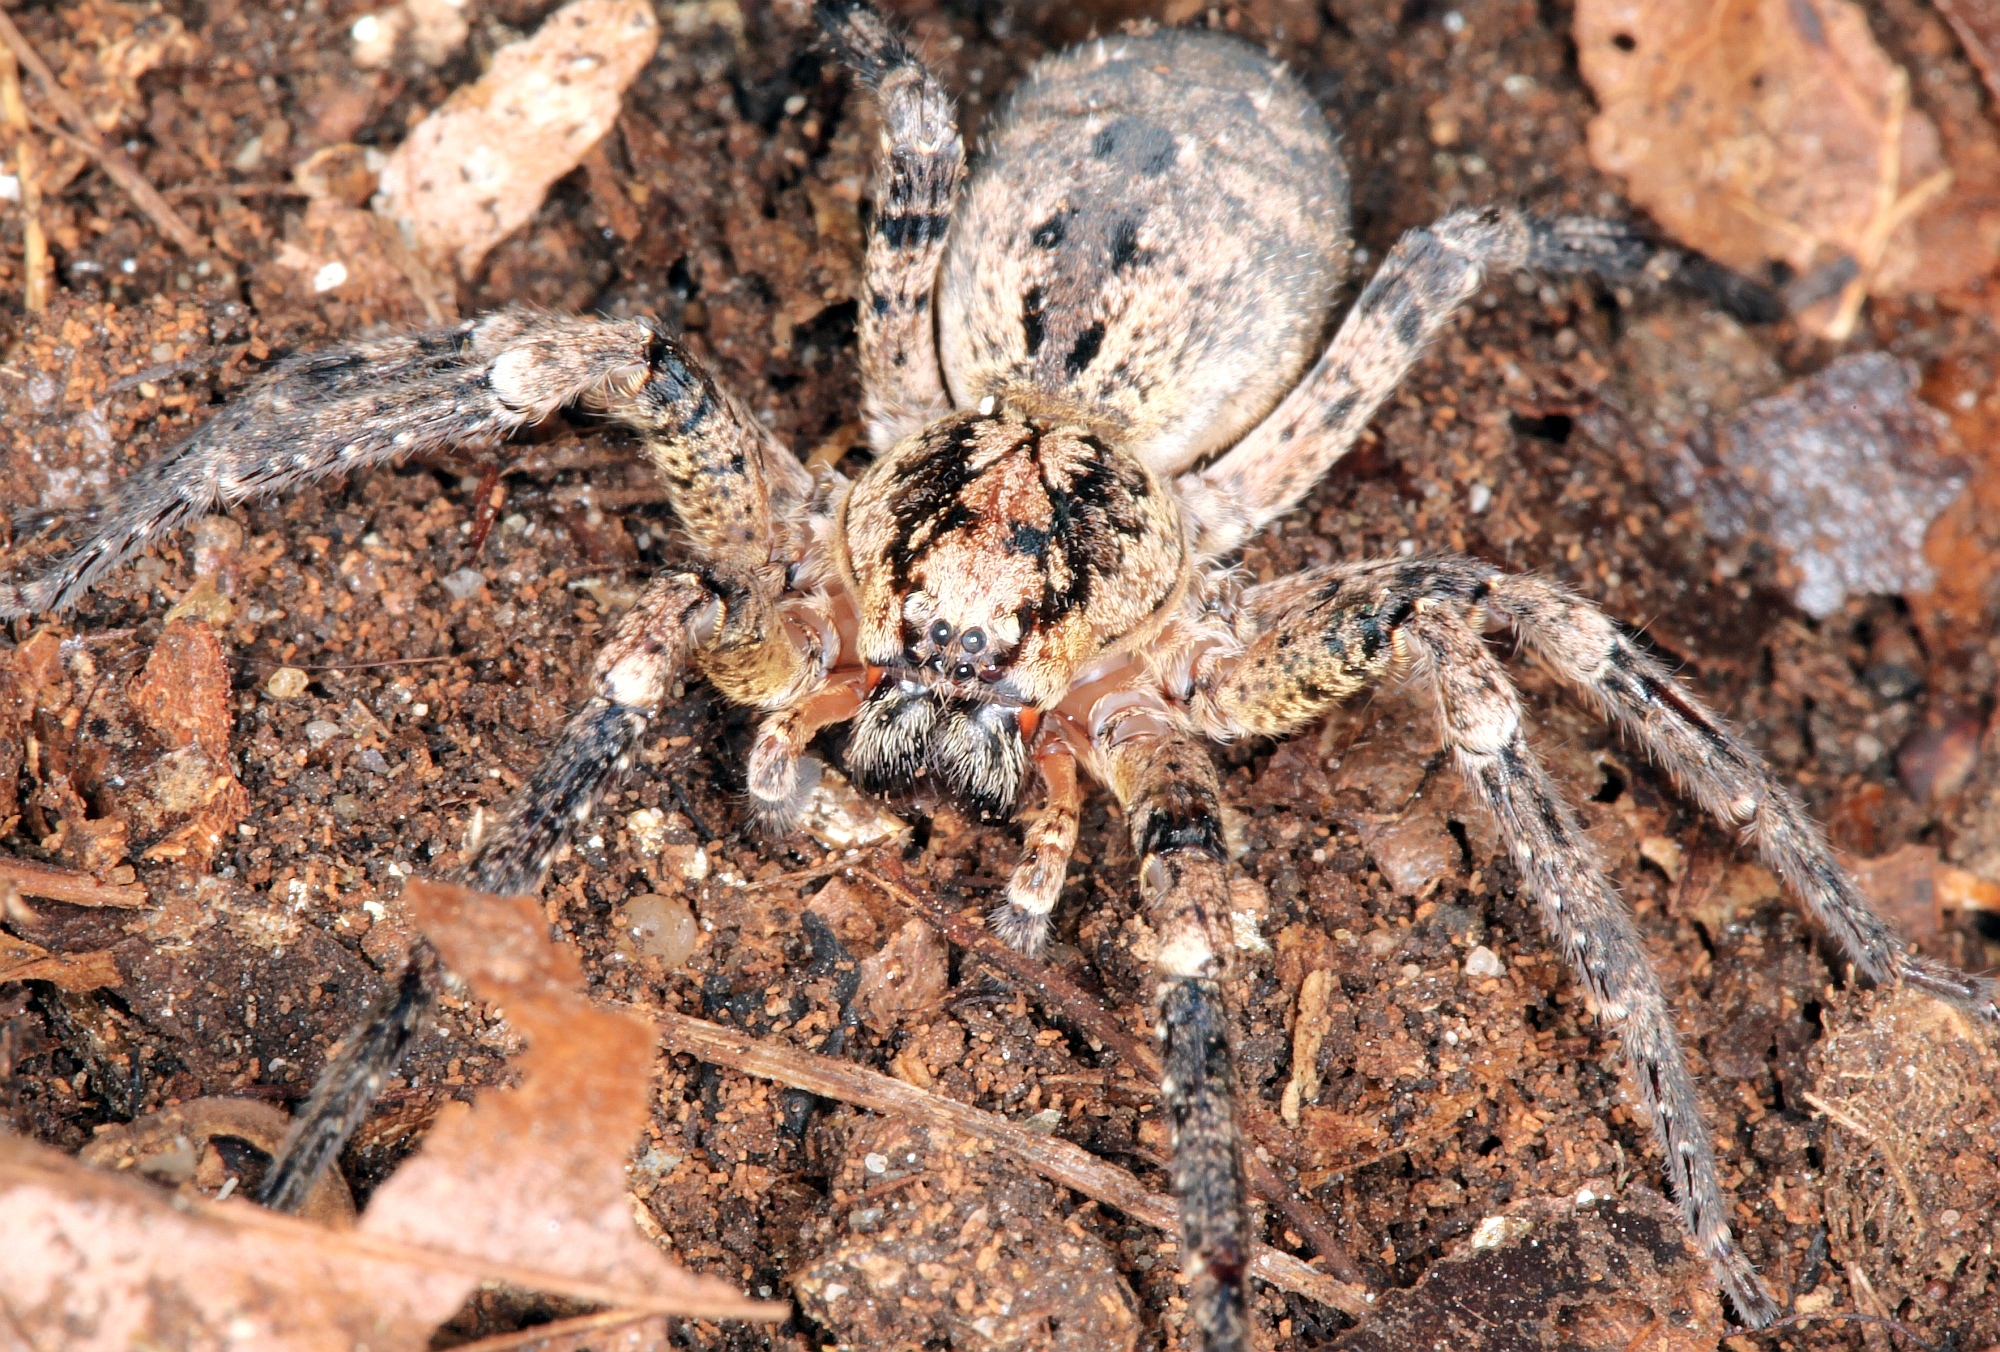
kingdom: Animalia
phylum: Arthropoda
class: Arachnida
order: Araneae
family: Zoropsidae
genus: Zoropsis
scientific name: Zoropsis spinimana
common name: Zoropsid spider
